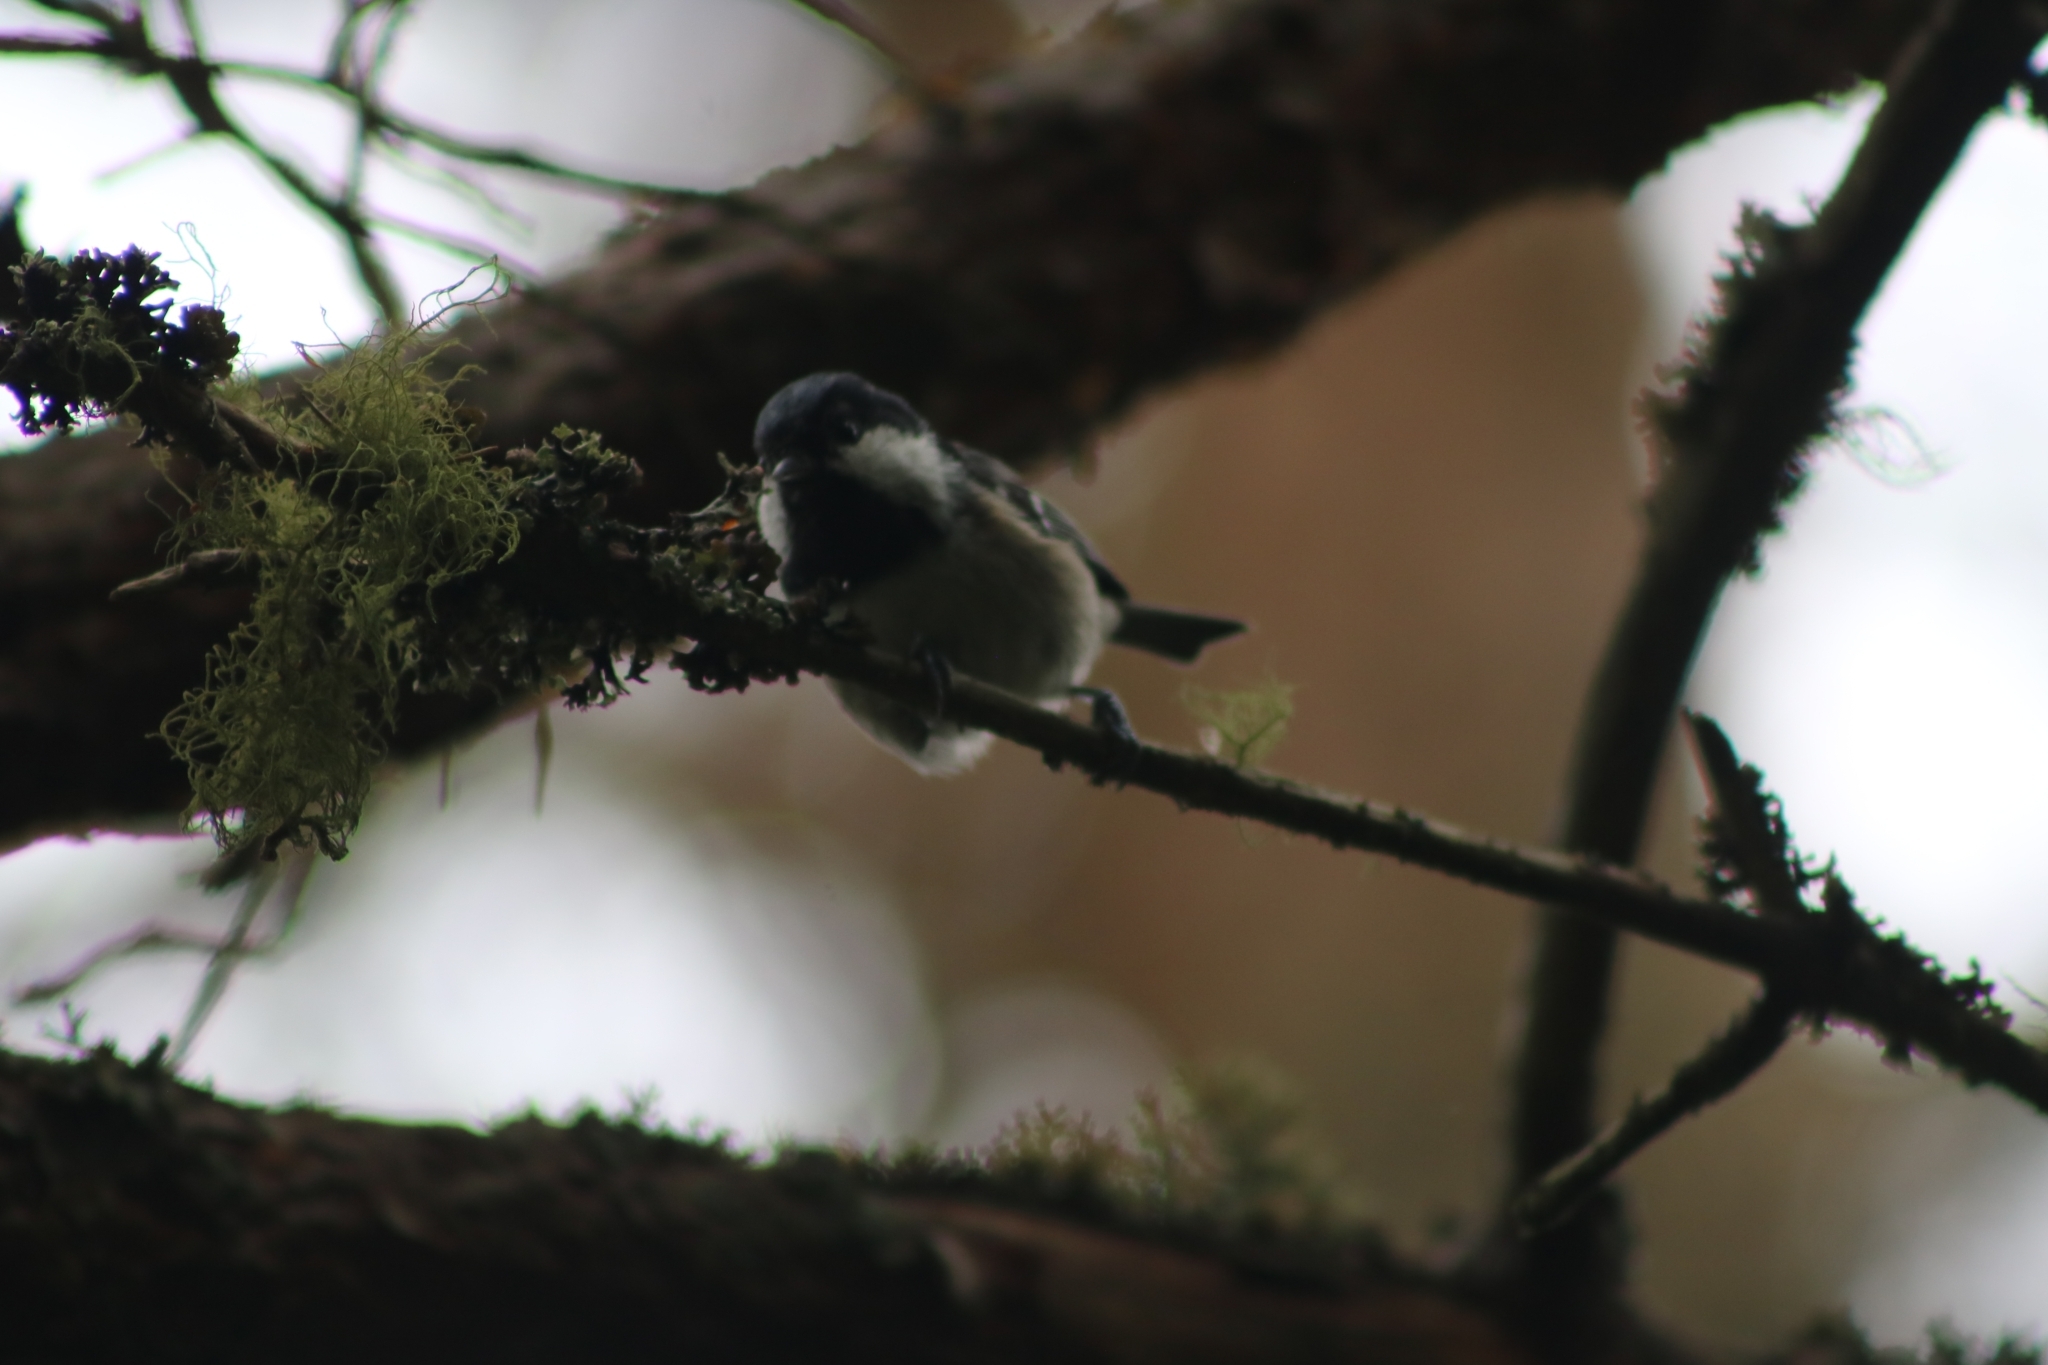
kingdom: Animalia
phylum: Chordata
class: Aves
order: Passeriformes
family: Paridae
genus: Periparus
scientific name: Periparus ater
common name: Coal tit
